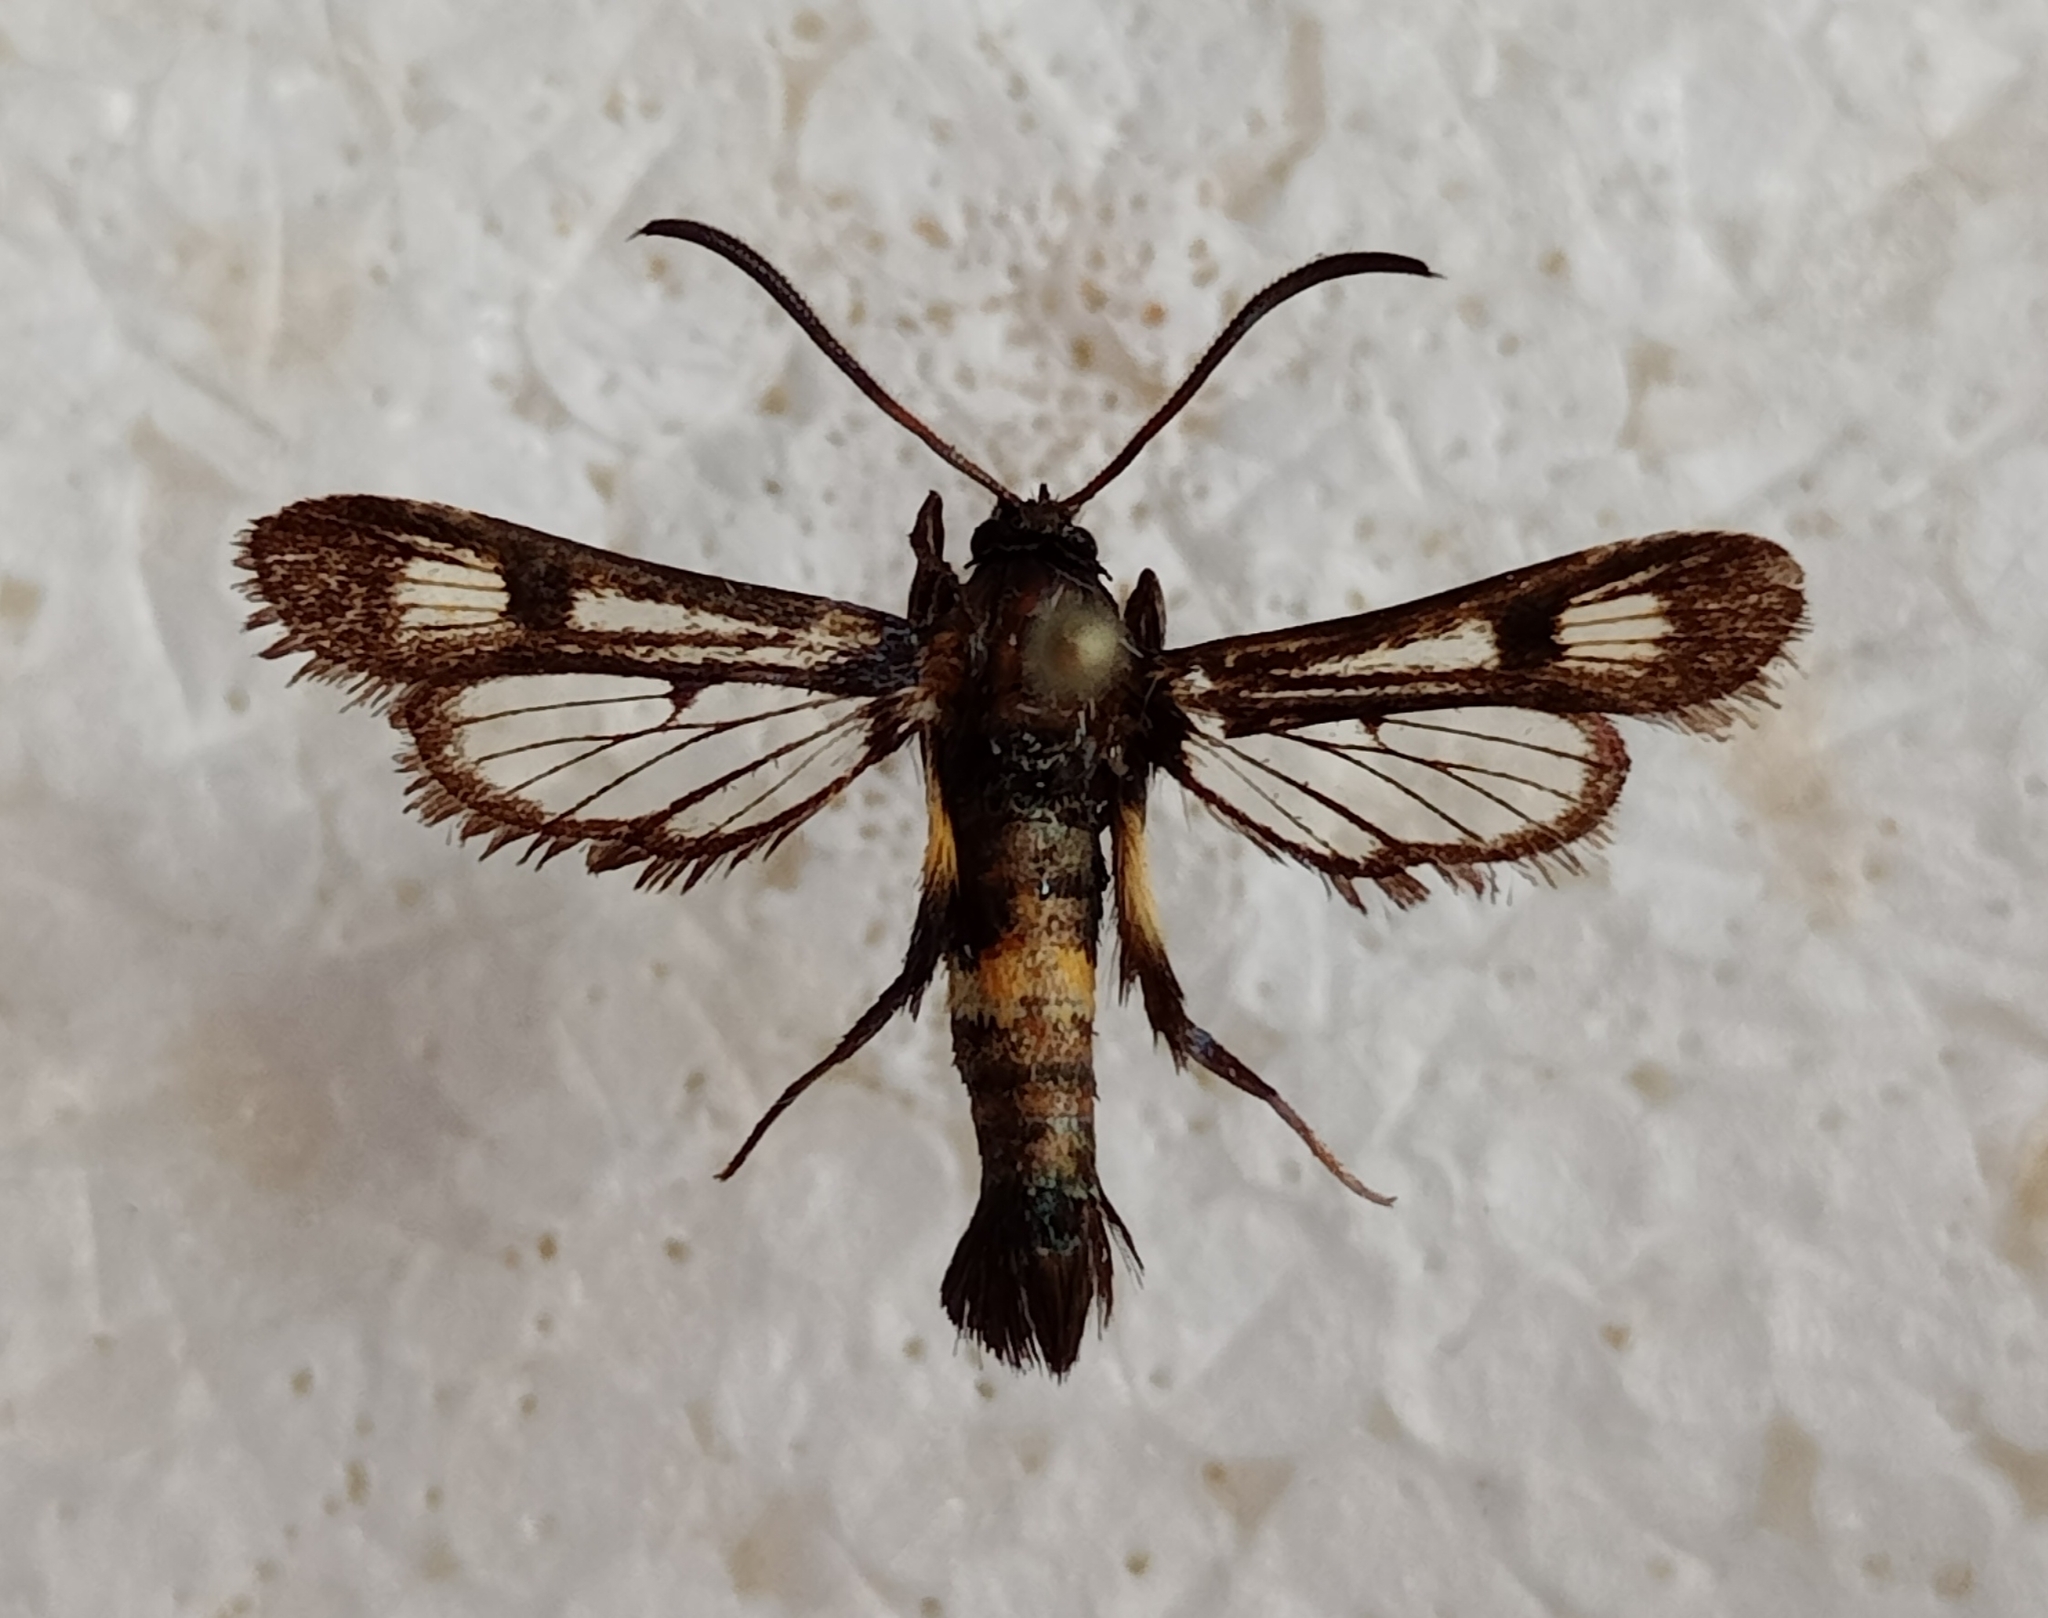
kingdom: Animalia
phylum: Arthropoda
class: Insecta
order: Lepidoptera
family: Sesiidae
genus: Pyropteron
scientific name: Pyropteron atypica
